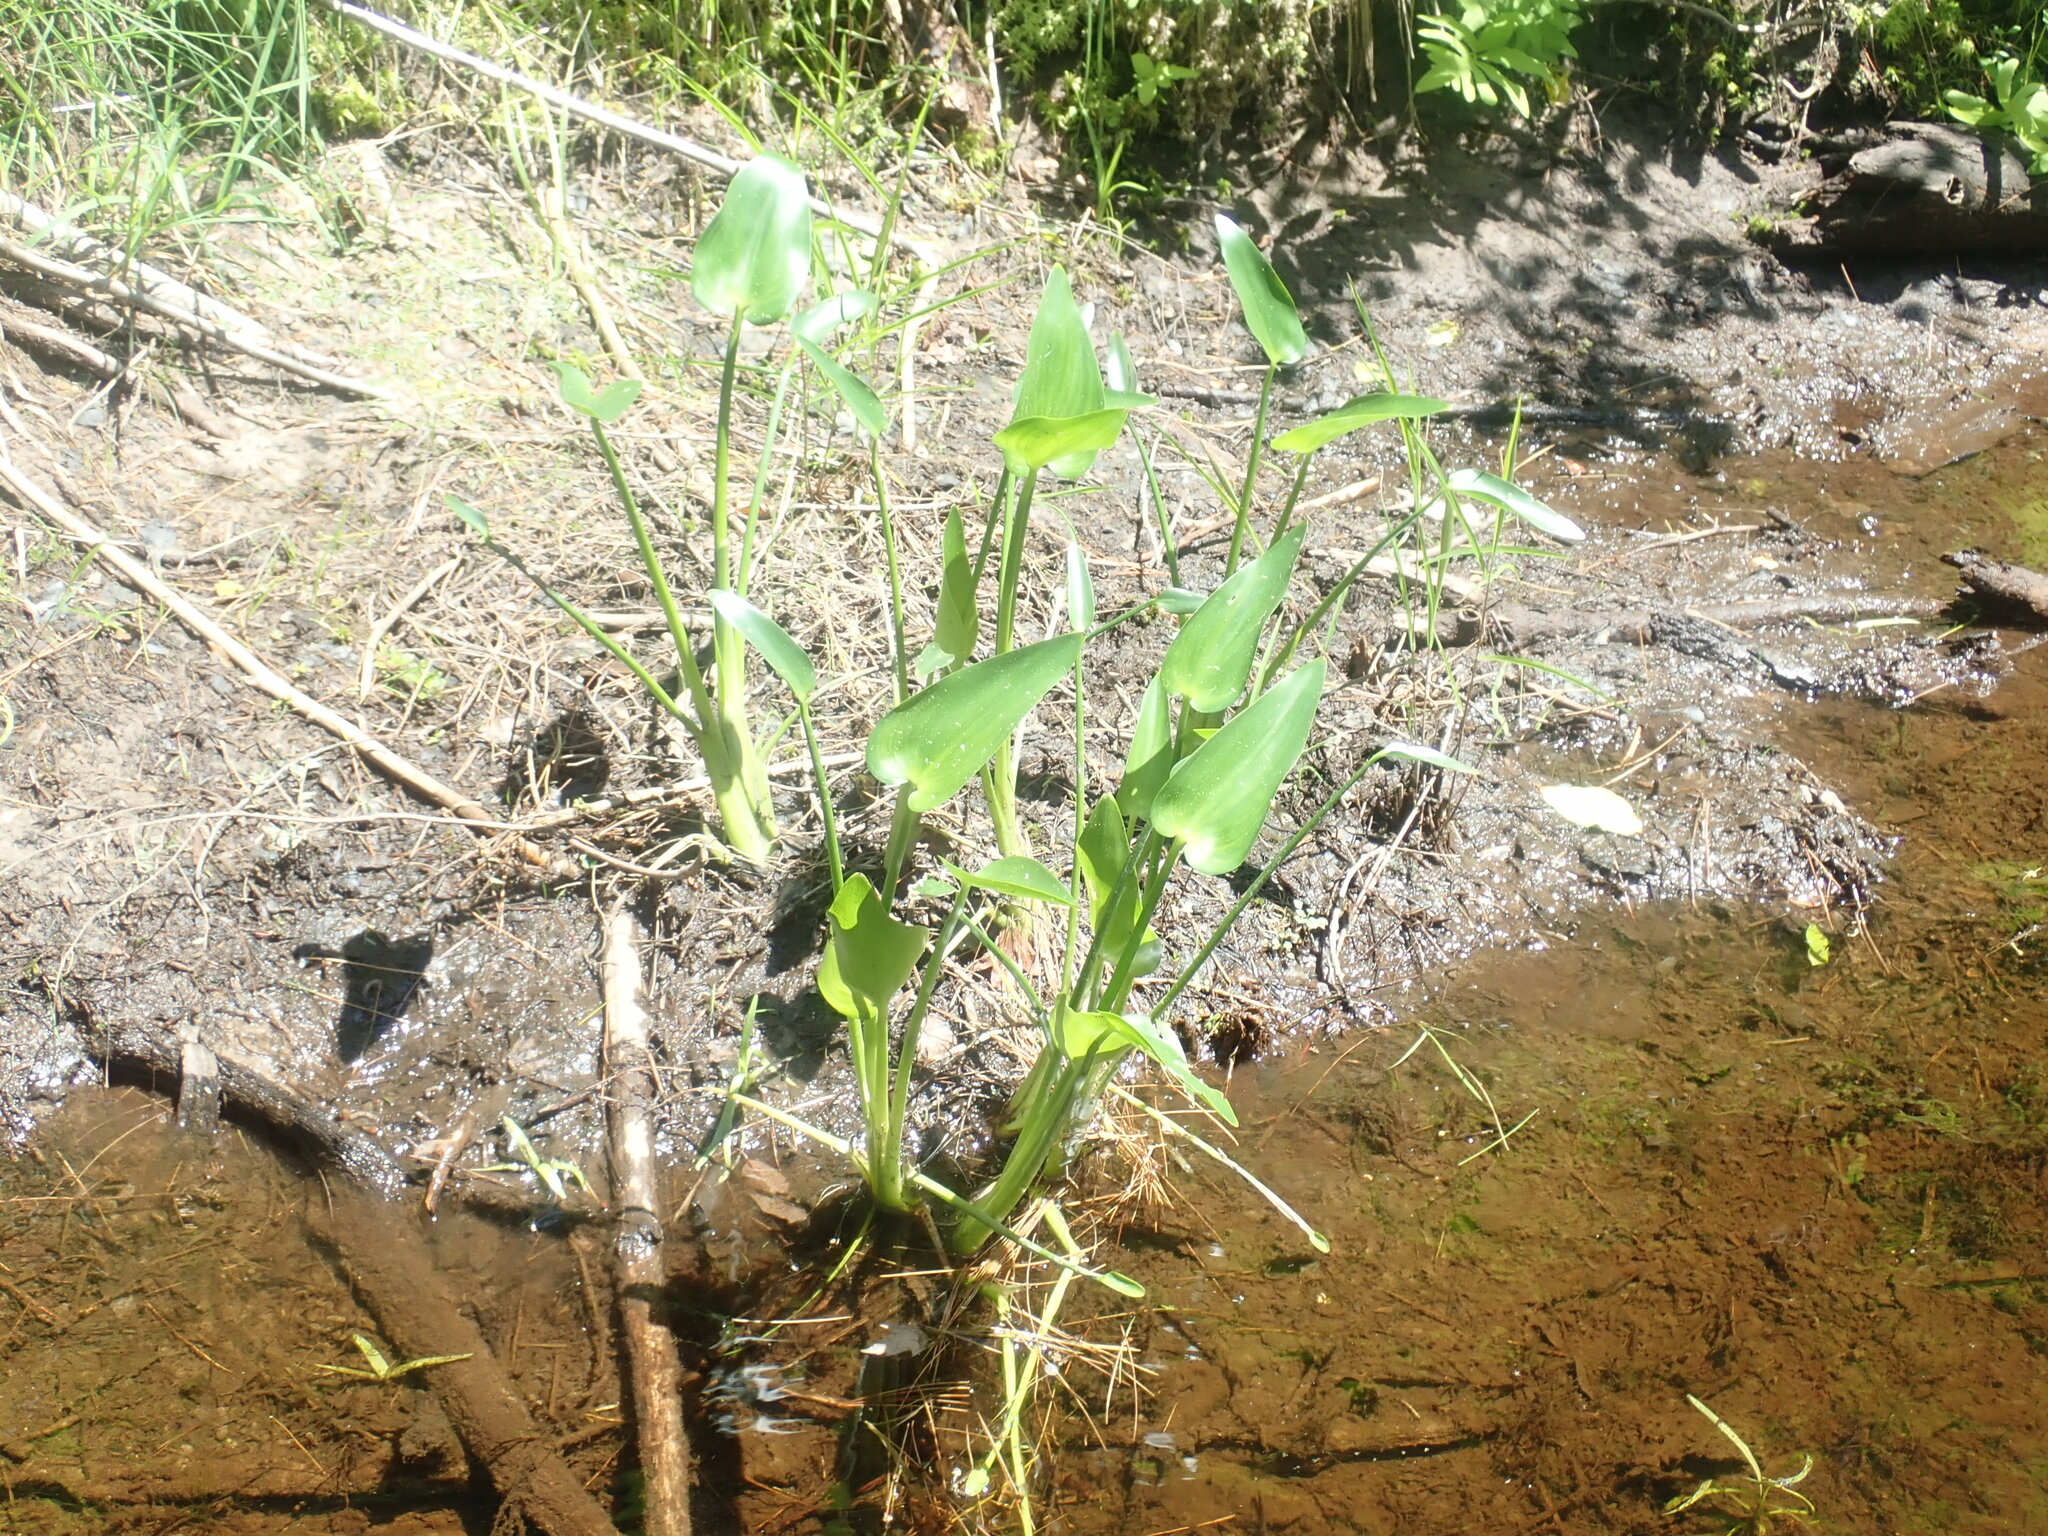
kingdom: Plantae
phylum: Tracheophyta
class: Liliopsida
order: Commelinales
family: Pontederiaceae
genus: Pontederia
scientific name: Pontederia cordata
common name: Pickerelweed
